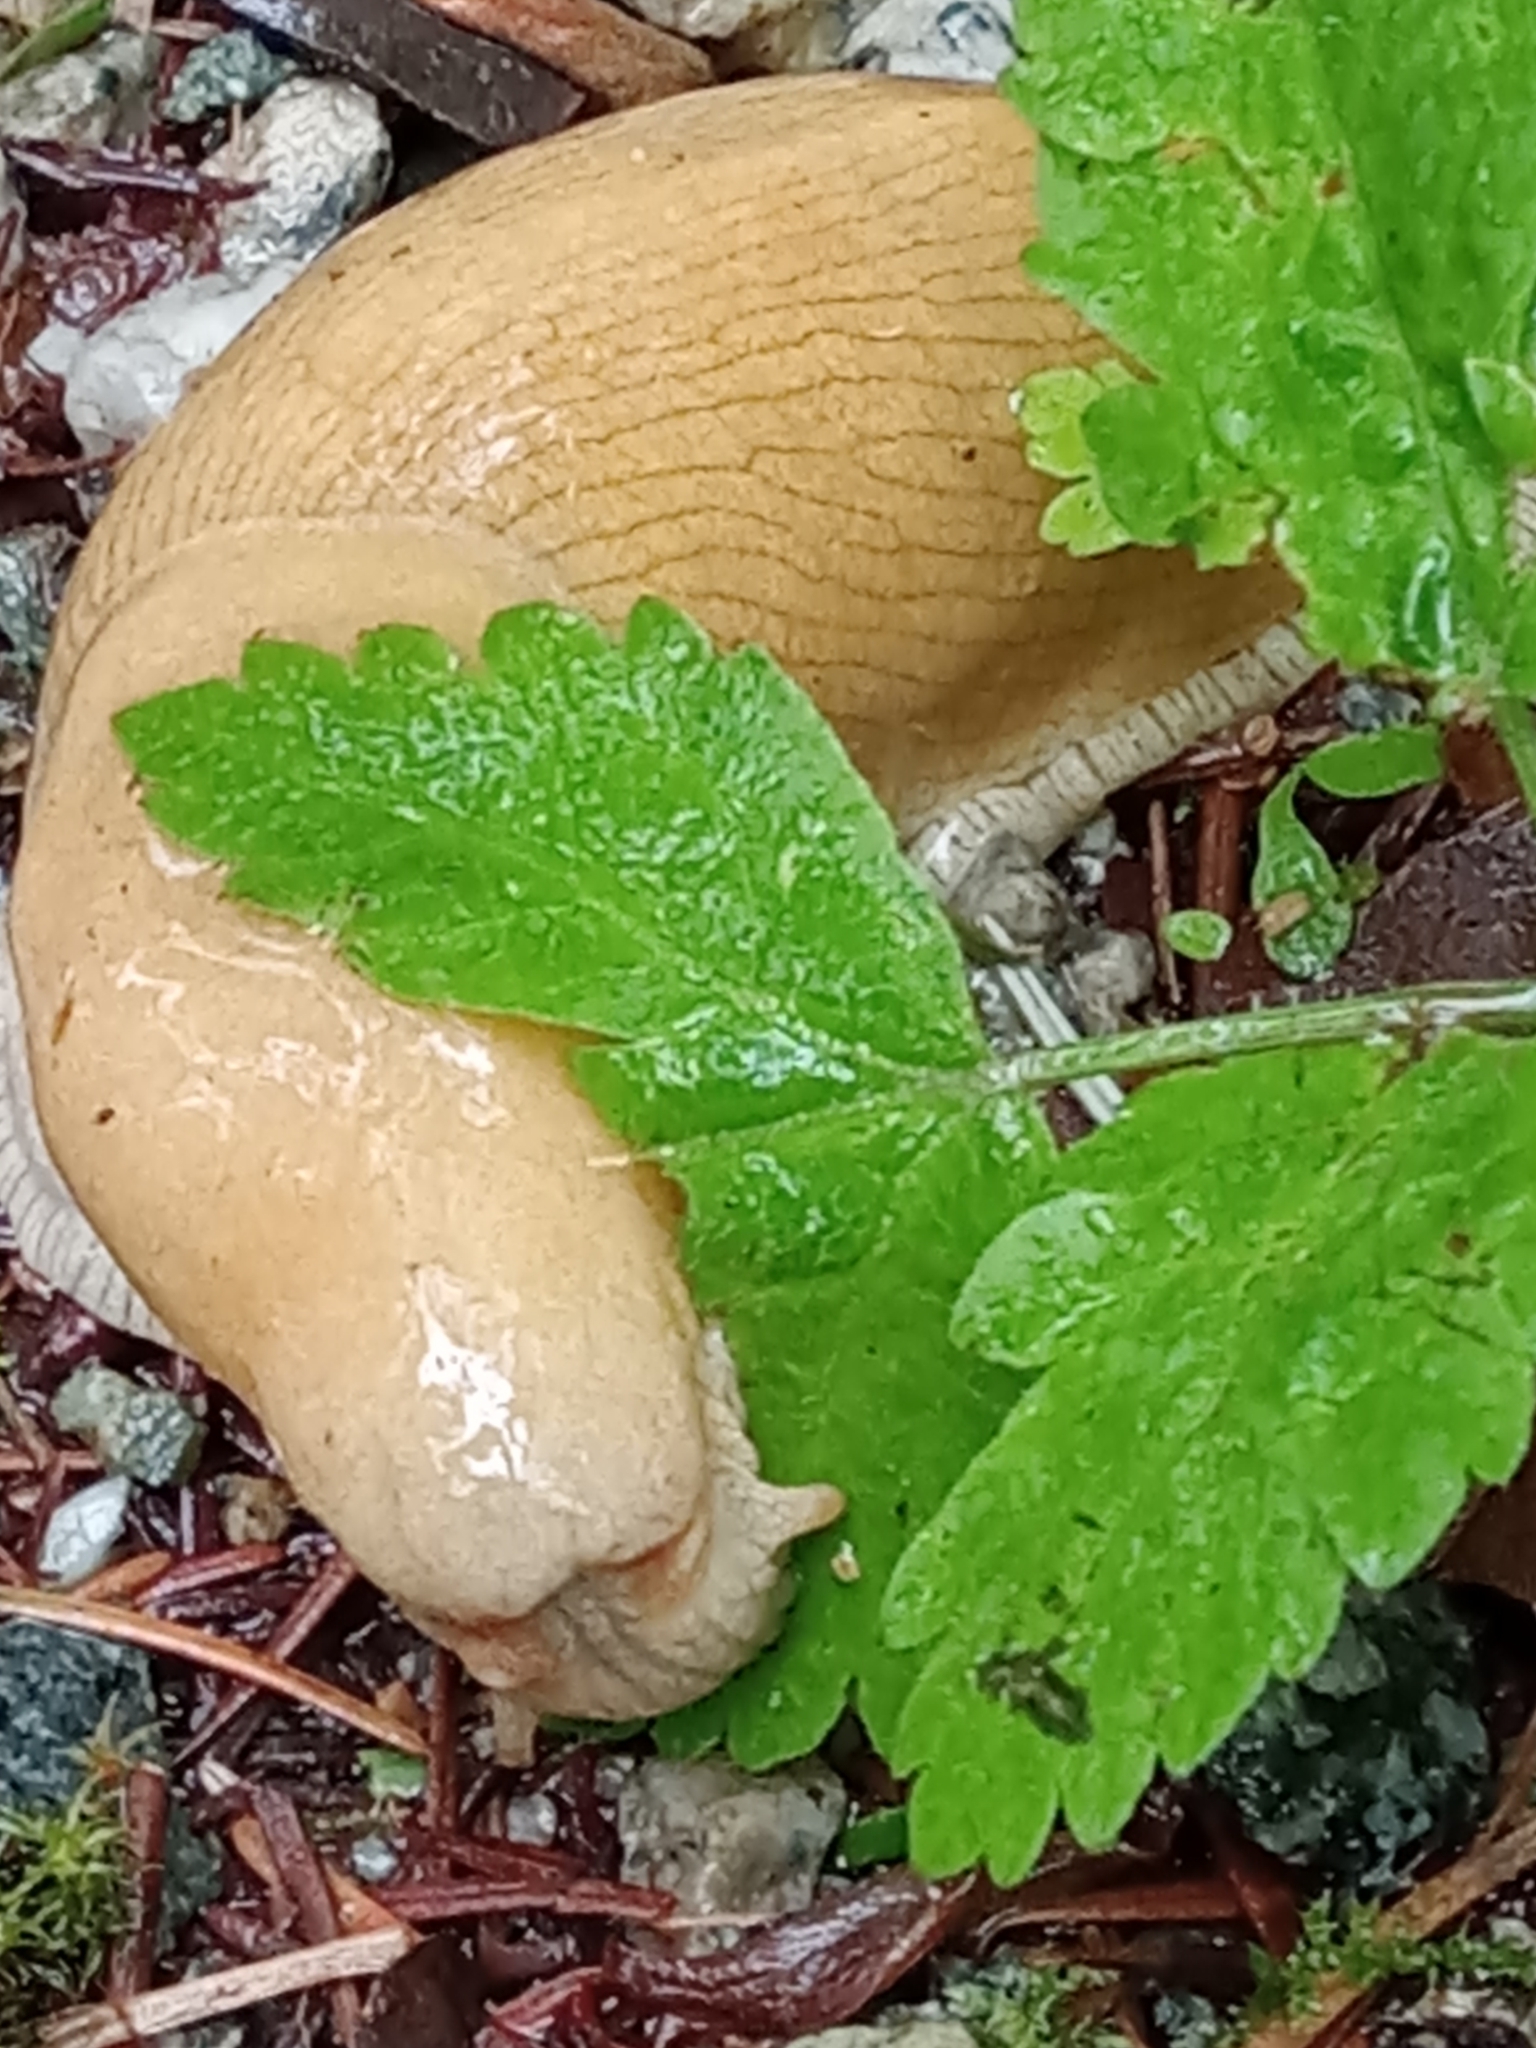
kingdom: Animalia
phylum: Mollusca
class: Gastropoda
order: Stylommatophora
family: Ariolimacidae
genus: Ariolimax
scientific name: Ariolimax columbianus
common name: Pacific banana slug
